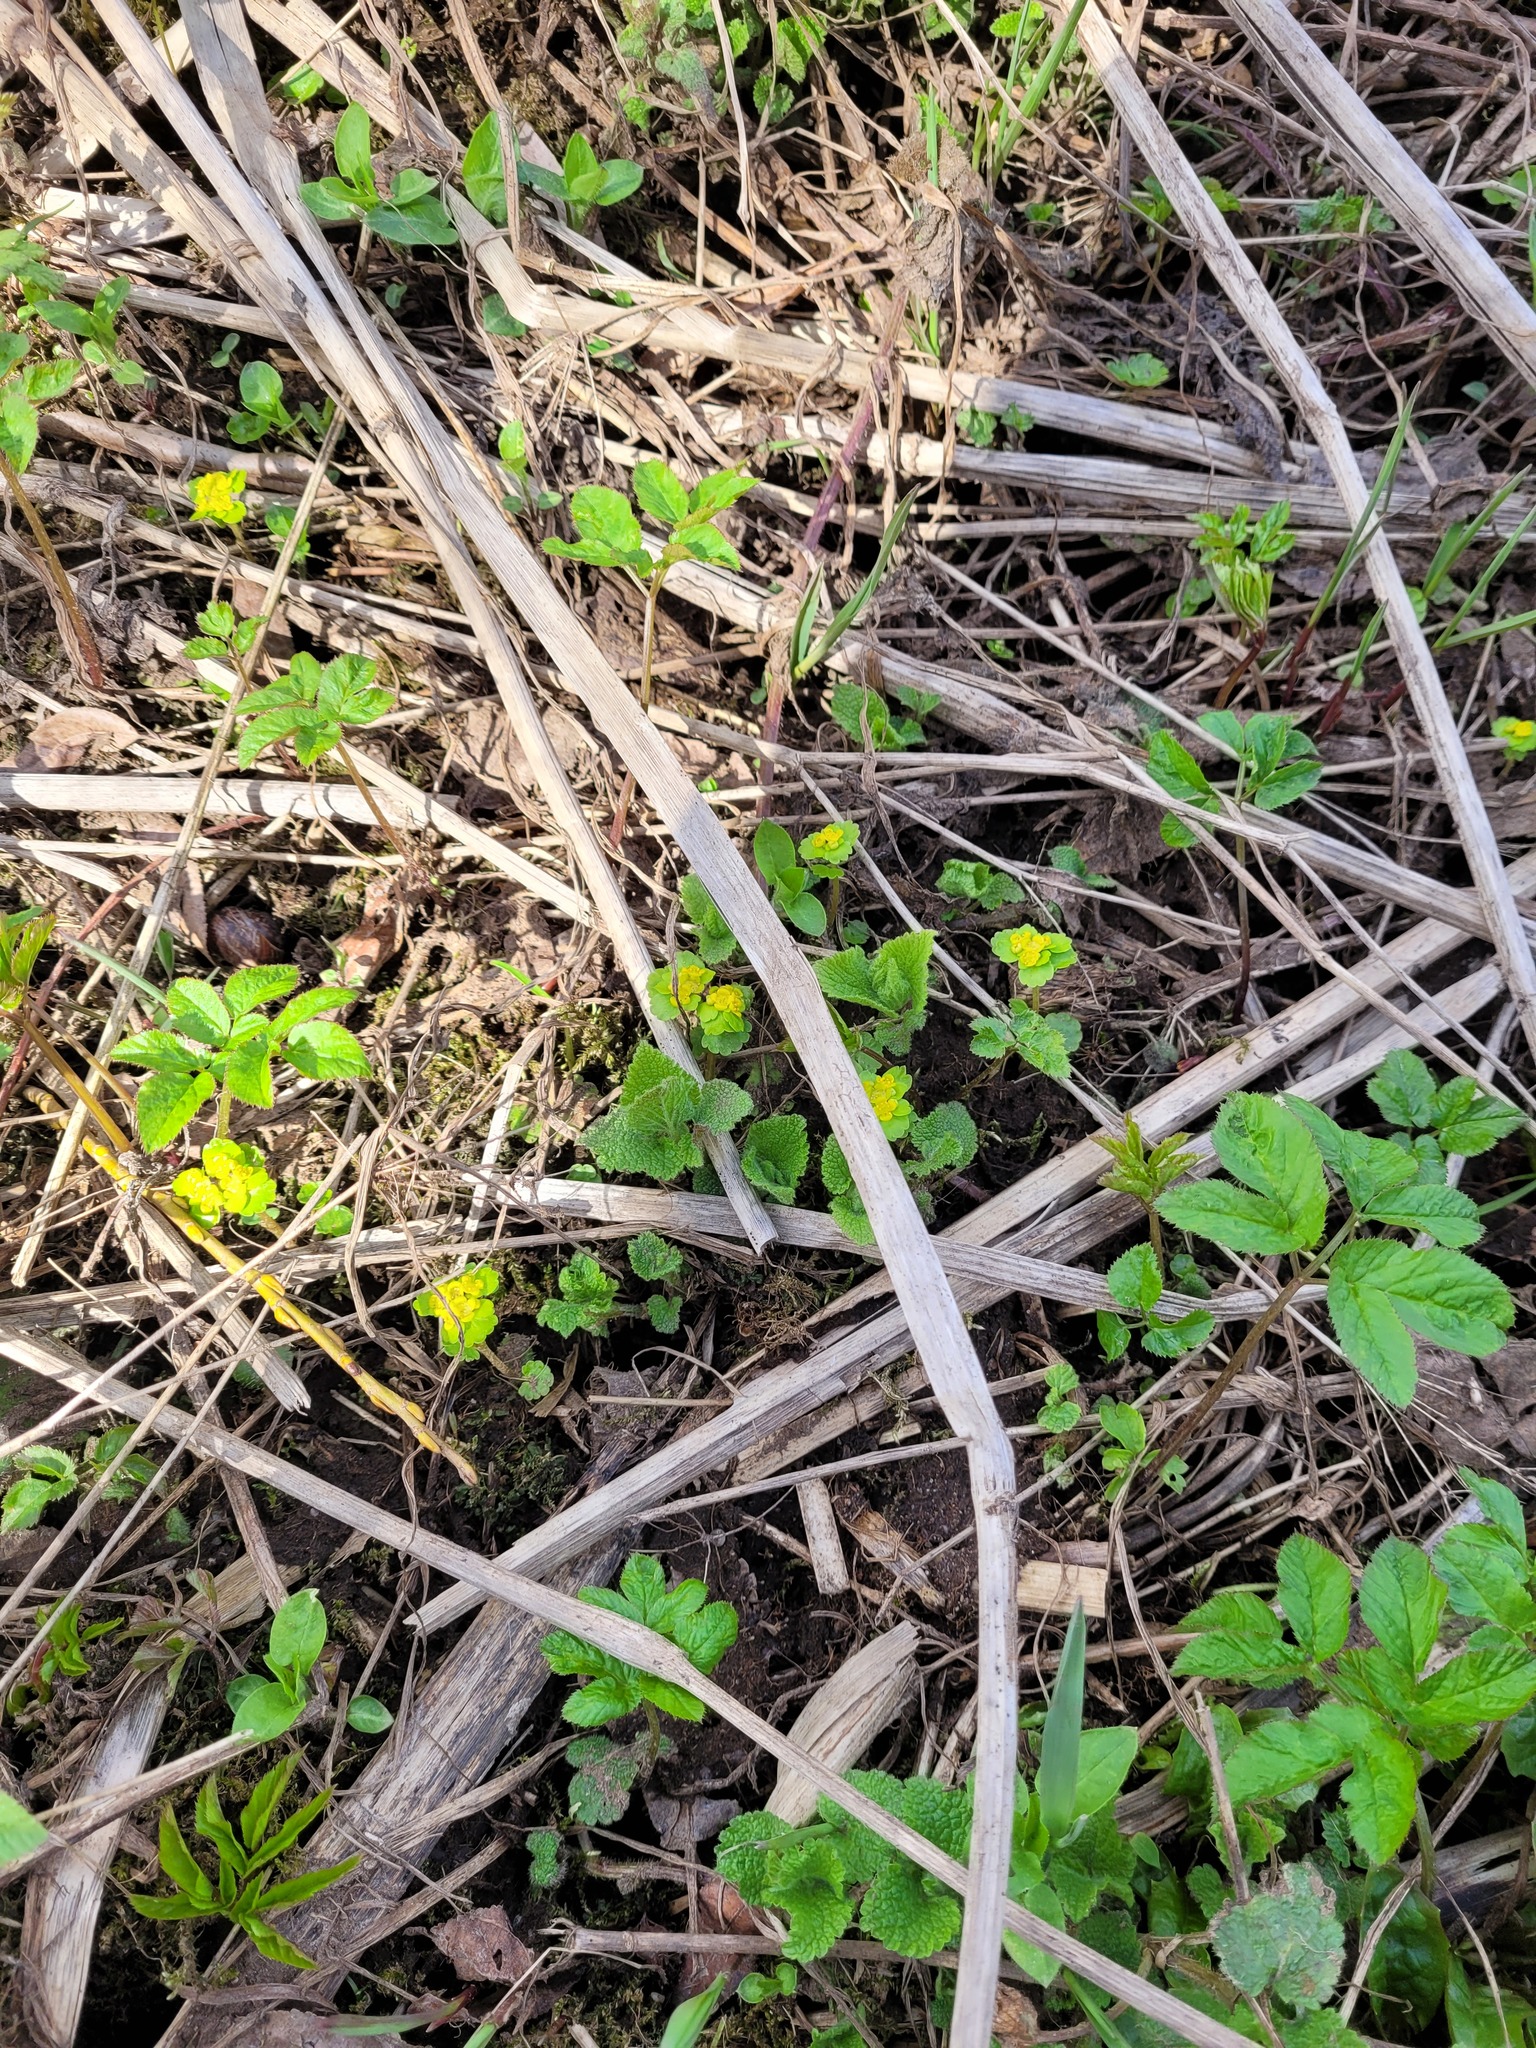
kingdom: Plantae
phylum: Tracheophyta
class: Magnoliopsida
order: Saxifragales
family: Saxifragaceae
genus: Chrysosplenium
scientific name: Chrysosplenium alternifolium
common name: Alternate-leaved golden-saxifrage
